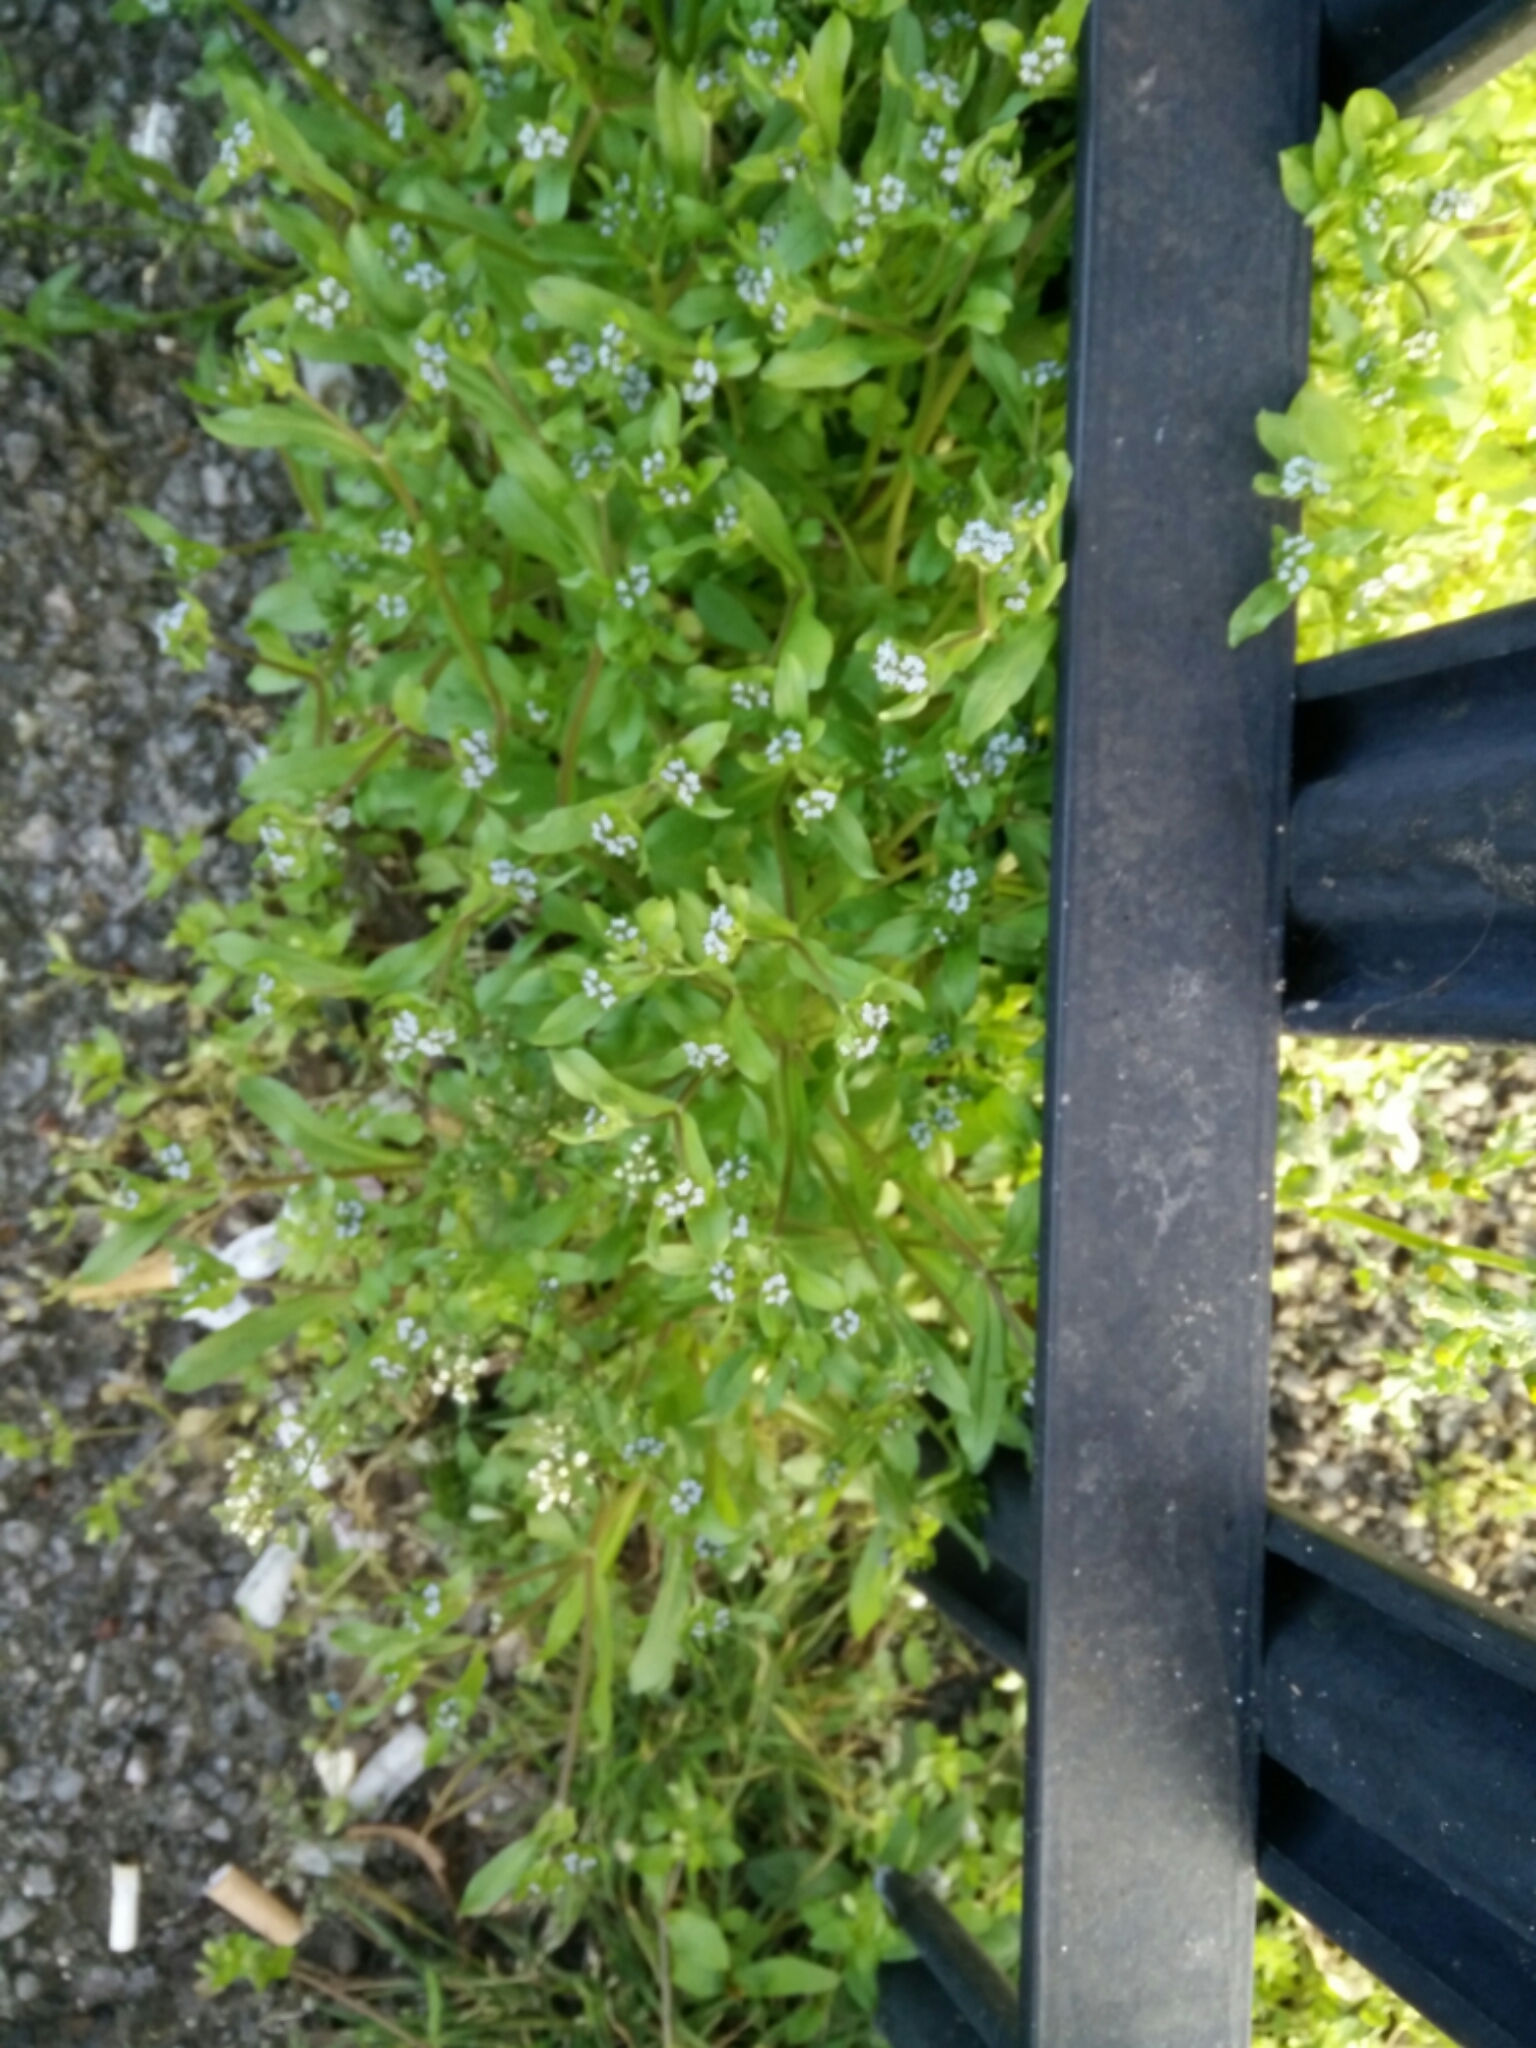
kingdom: Plantae
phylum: Tracheophyta
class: Magnoliopsida
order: Dipsacales
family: Caprifoliaceae
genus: Valerianella
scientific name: Valerianella locusta
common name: Common cornsalad
